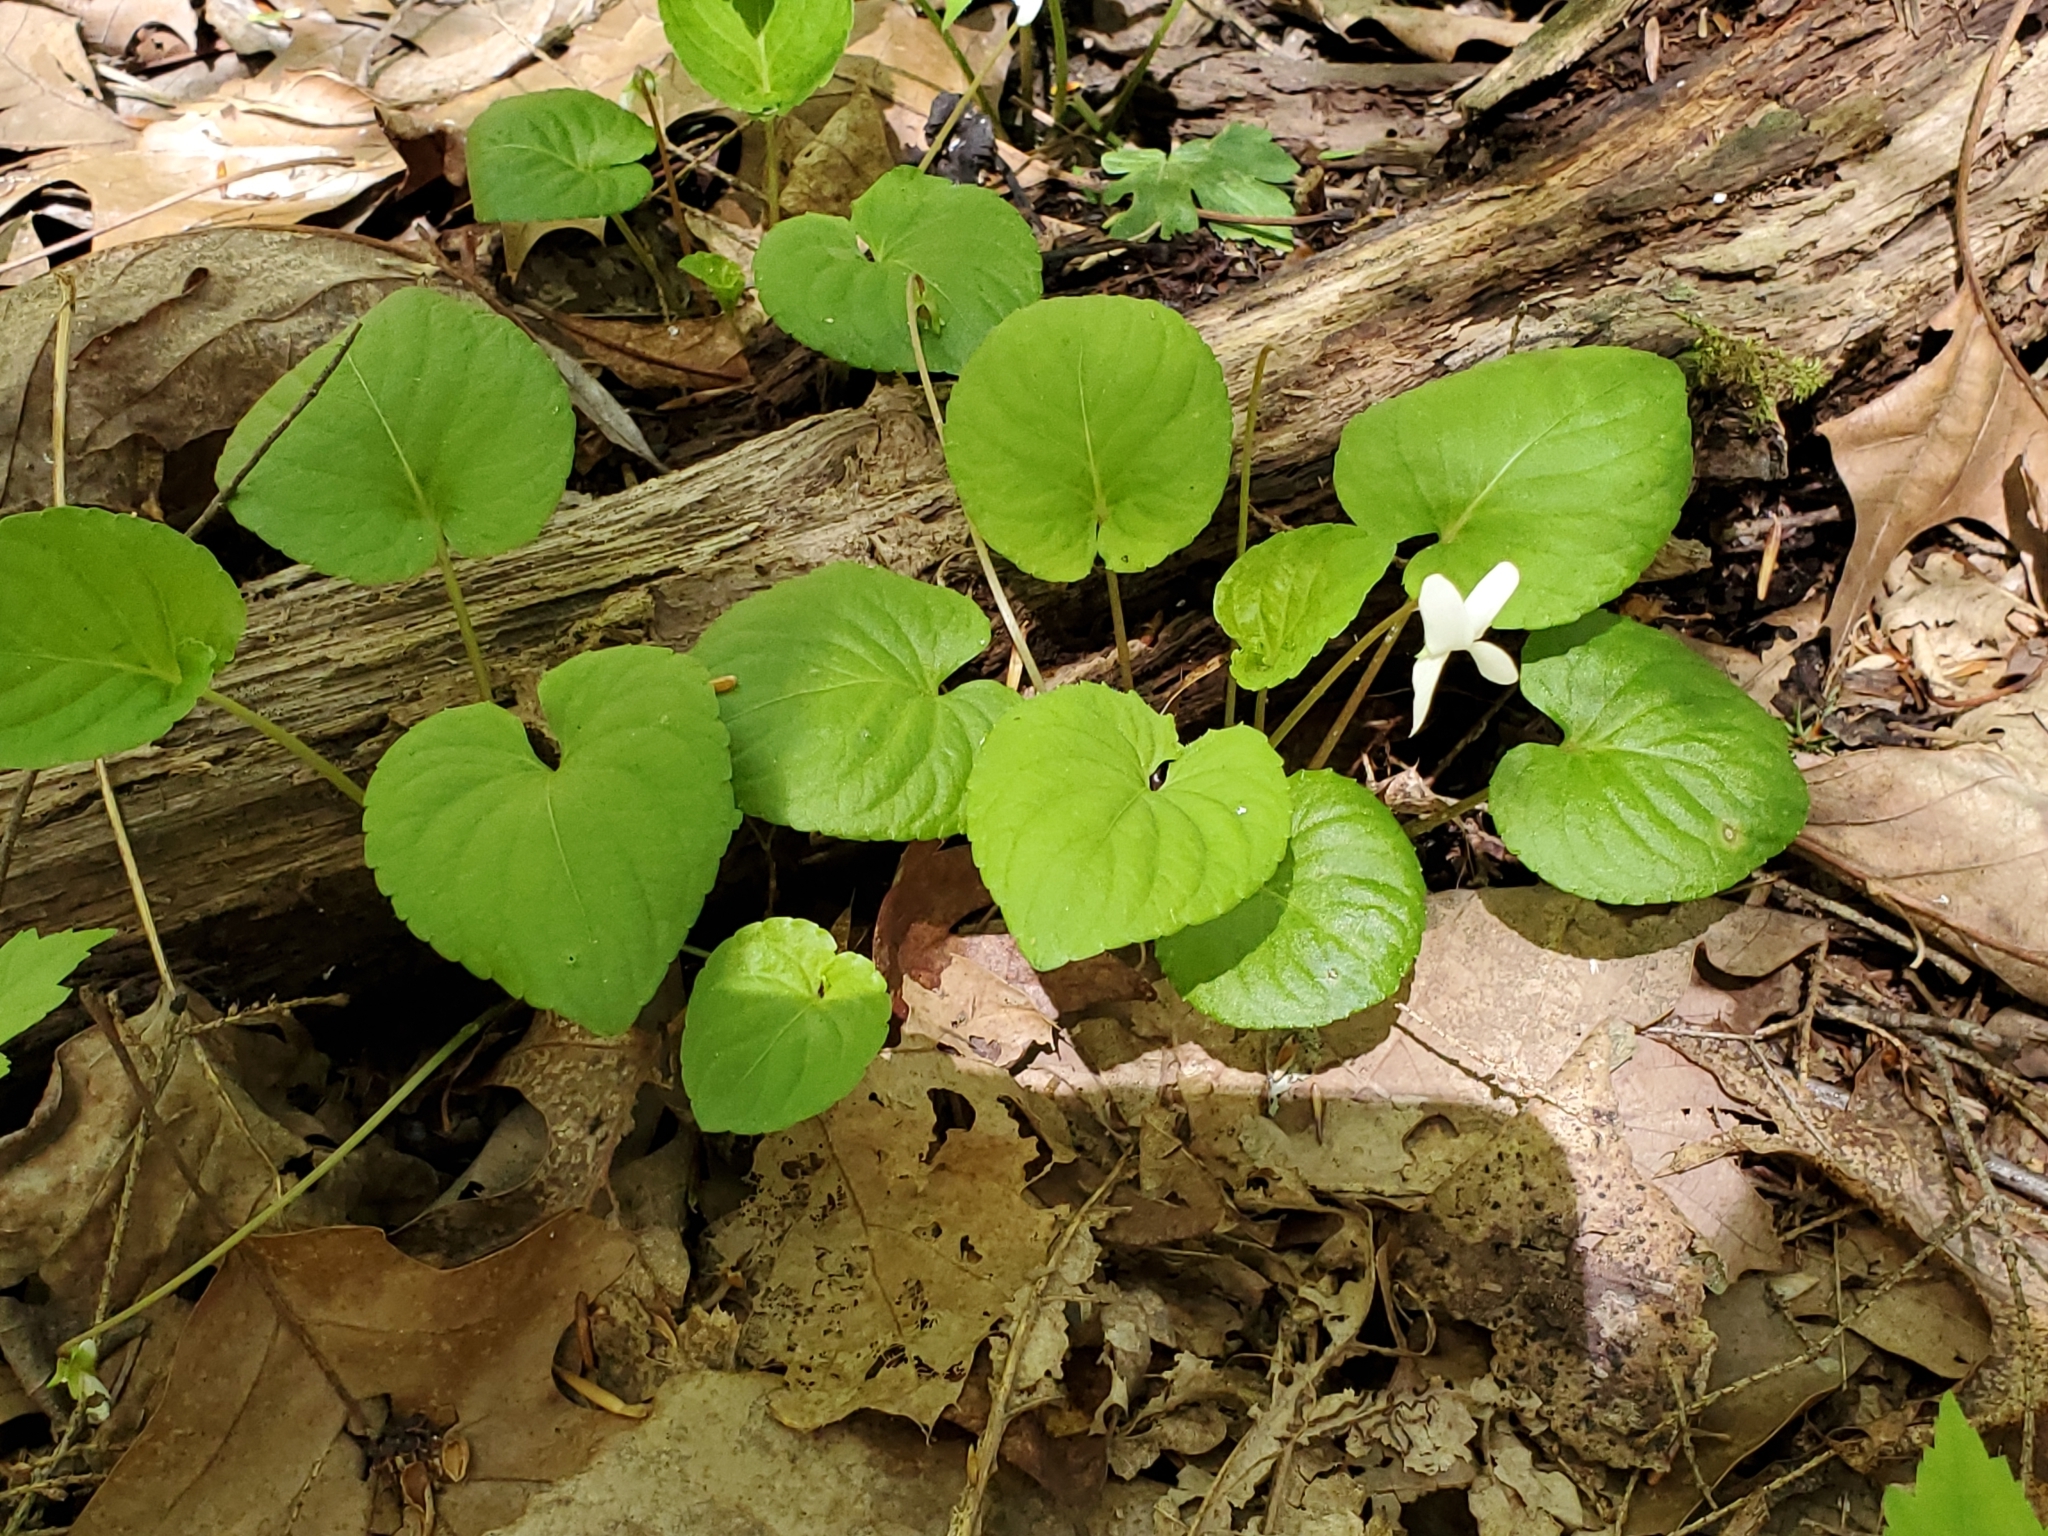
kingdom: Plantae
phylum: Tracheophyta
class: Magnoliopsida
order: Malpighiales
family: Violaceae
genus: Viola
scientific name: Viola blanda
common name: Sweet white violet
